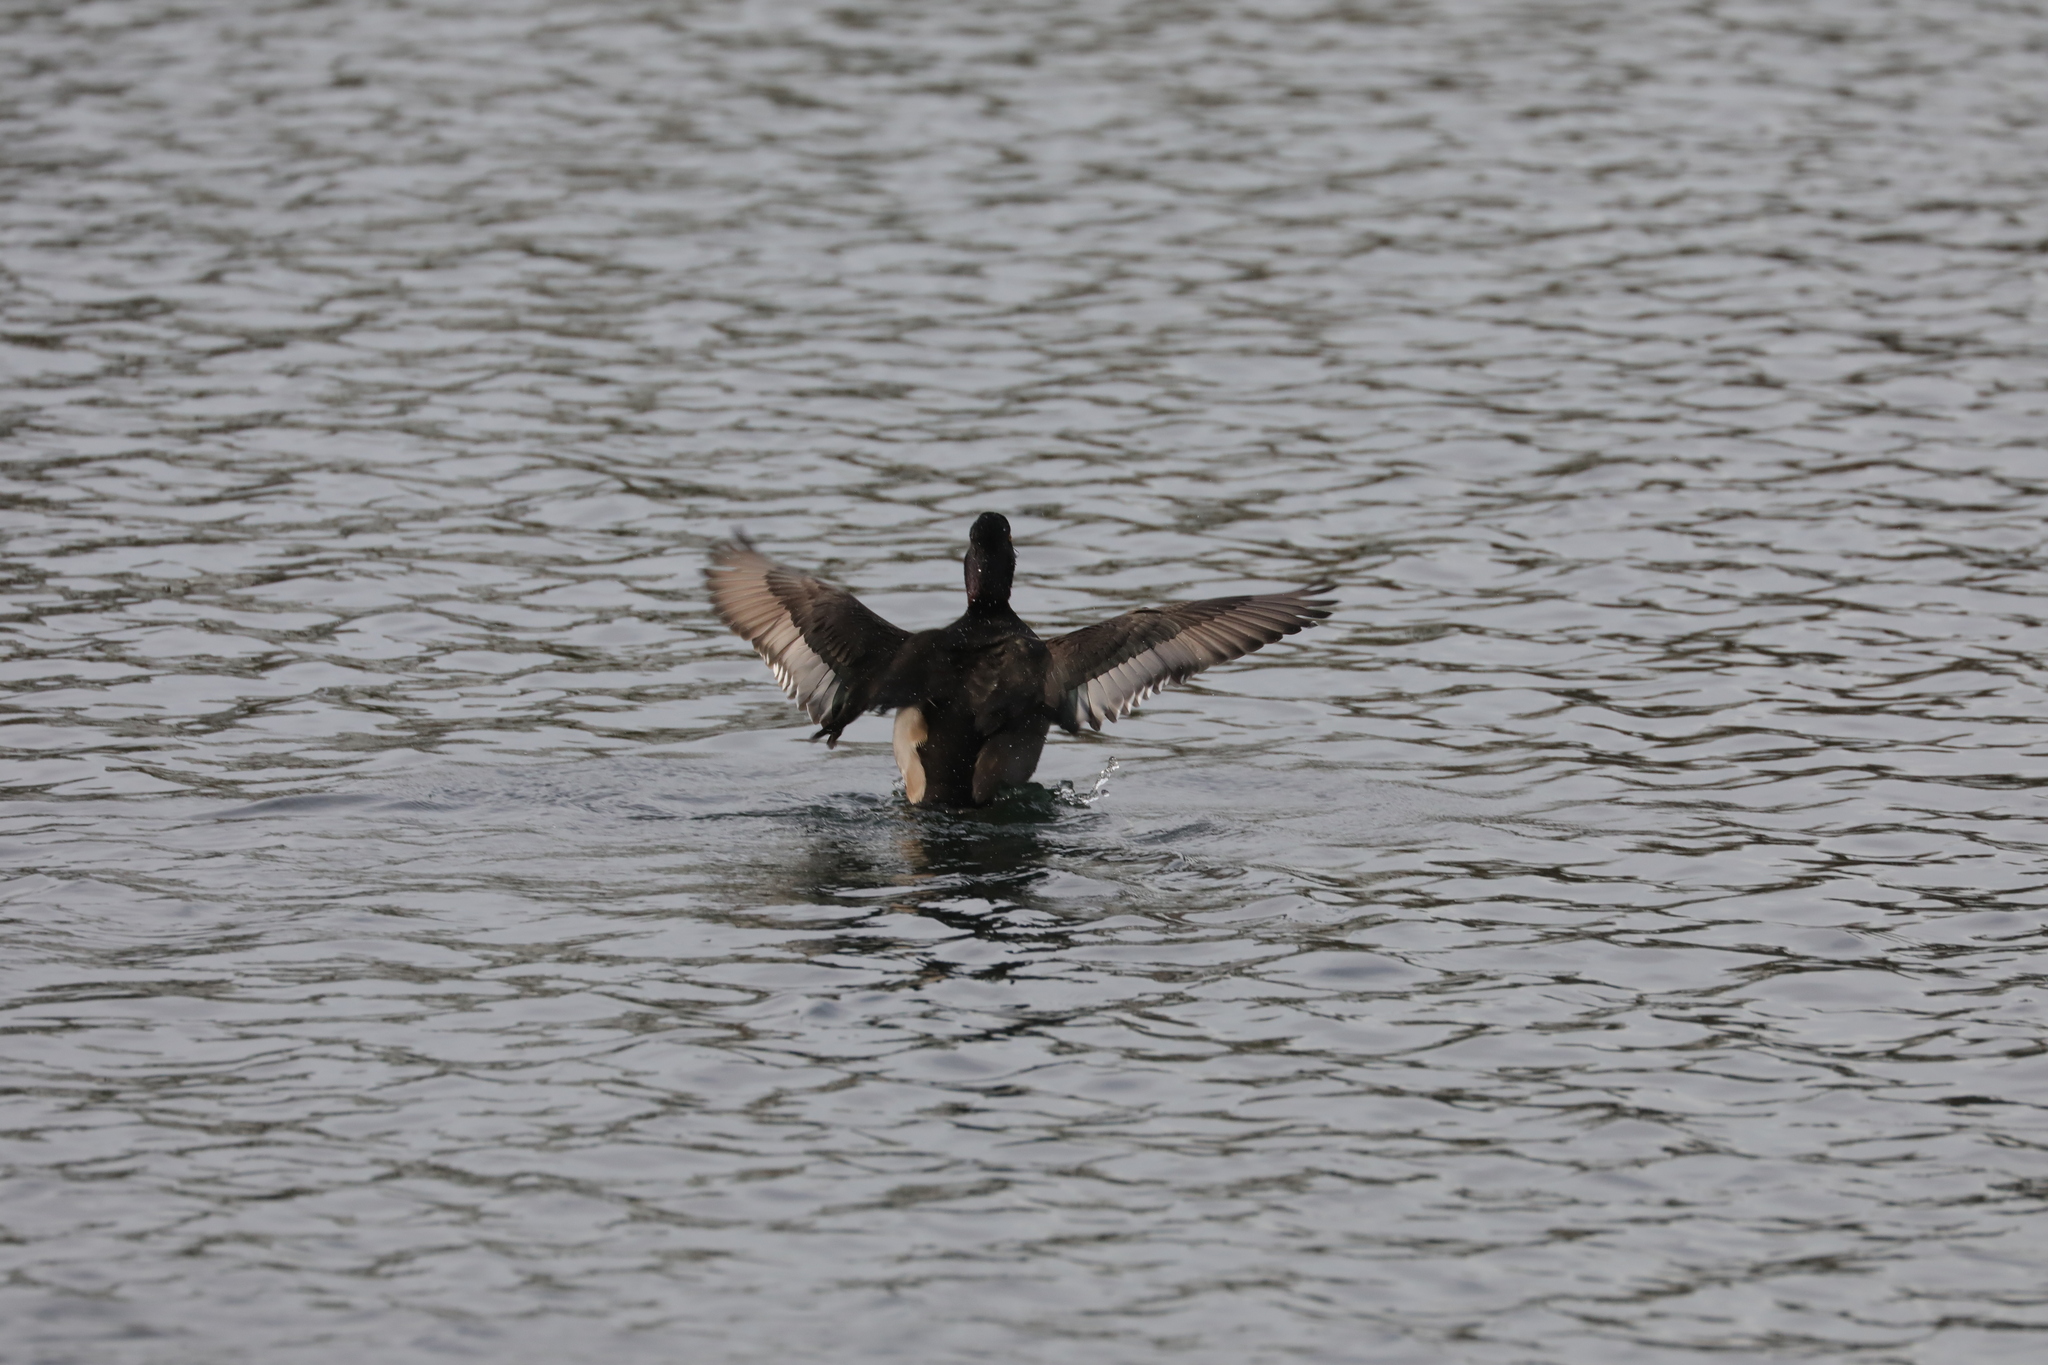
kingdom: Animalia
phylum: Chordata
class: Aves
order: Anseriformes
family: Anatidae
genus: Aythya
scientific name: Aythya collaris
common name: Ring-necked duck
